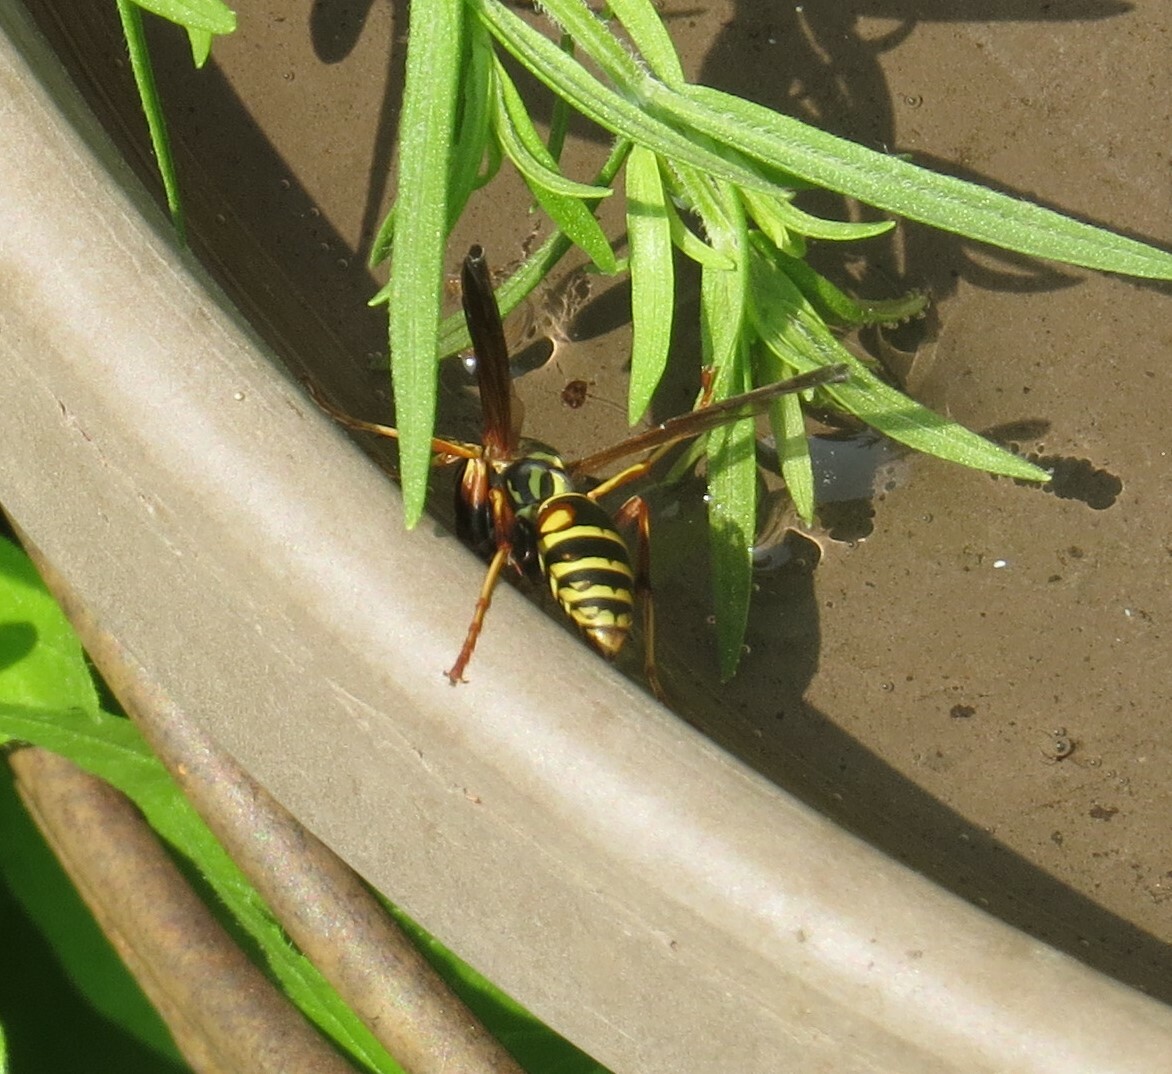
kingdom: Animalia
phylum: Arthropoda
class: Insecta
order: Hymenoptera
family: Eumenidae
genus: Polistes
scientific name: Polistes fuscatus
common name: Dark paper wasp
